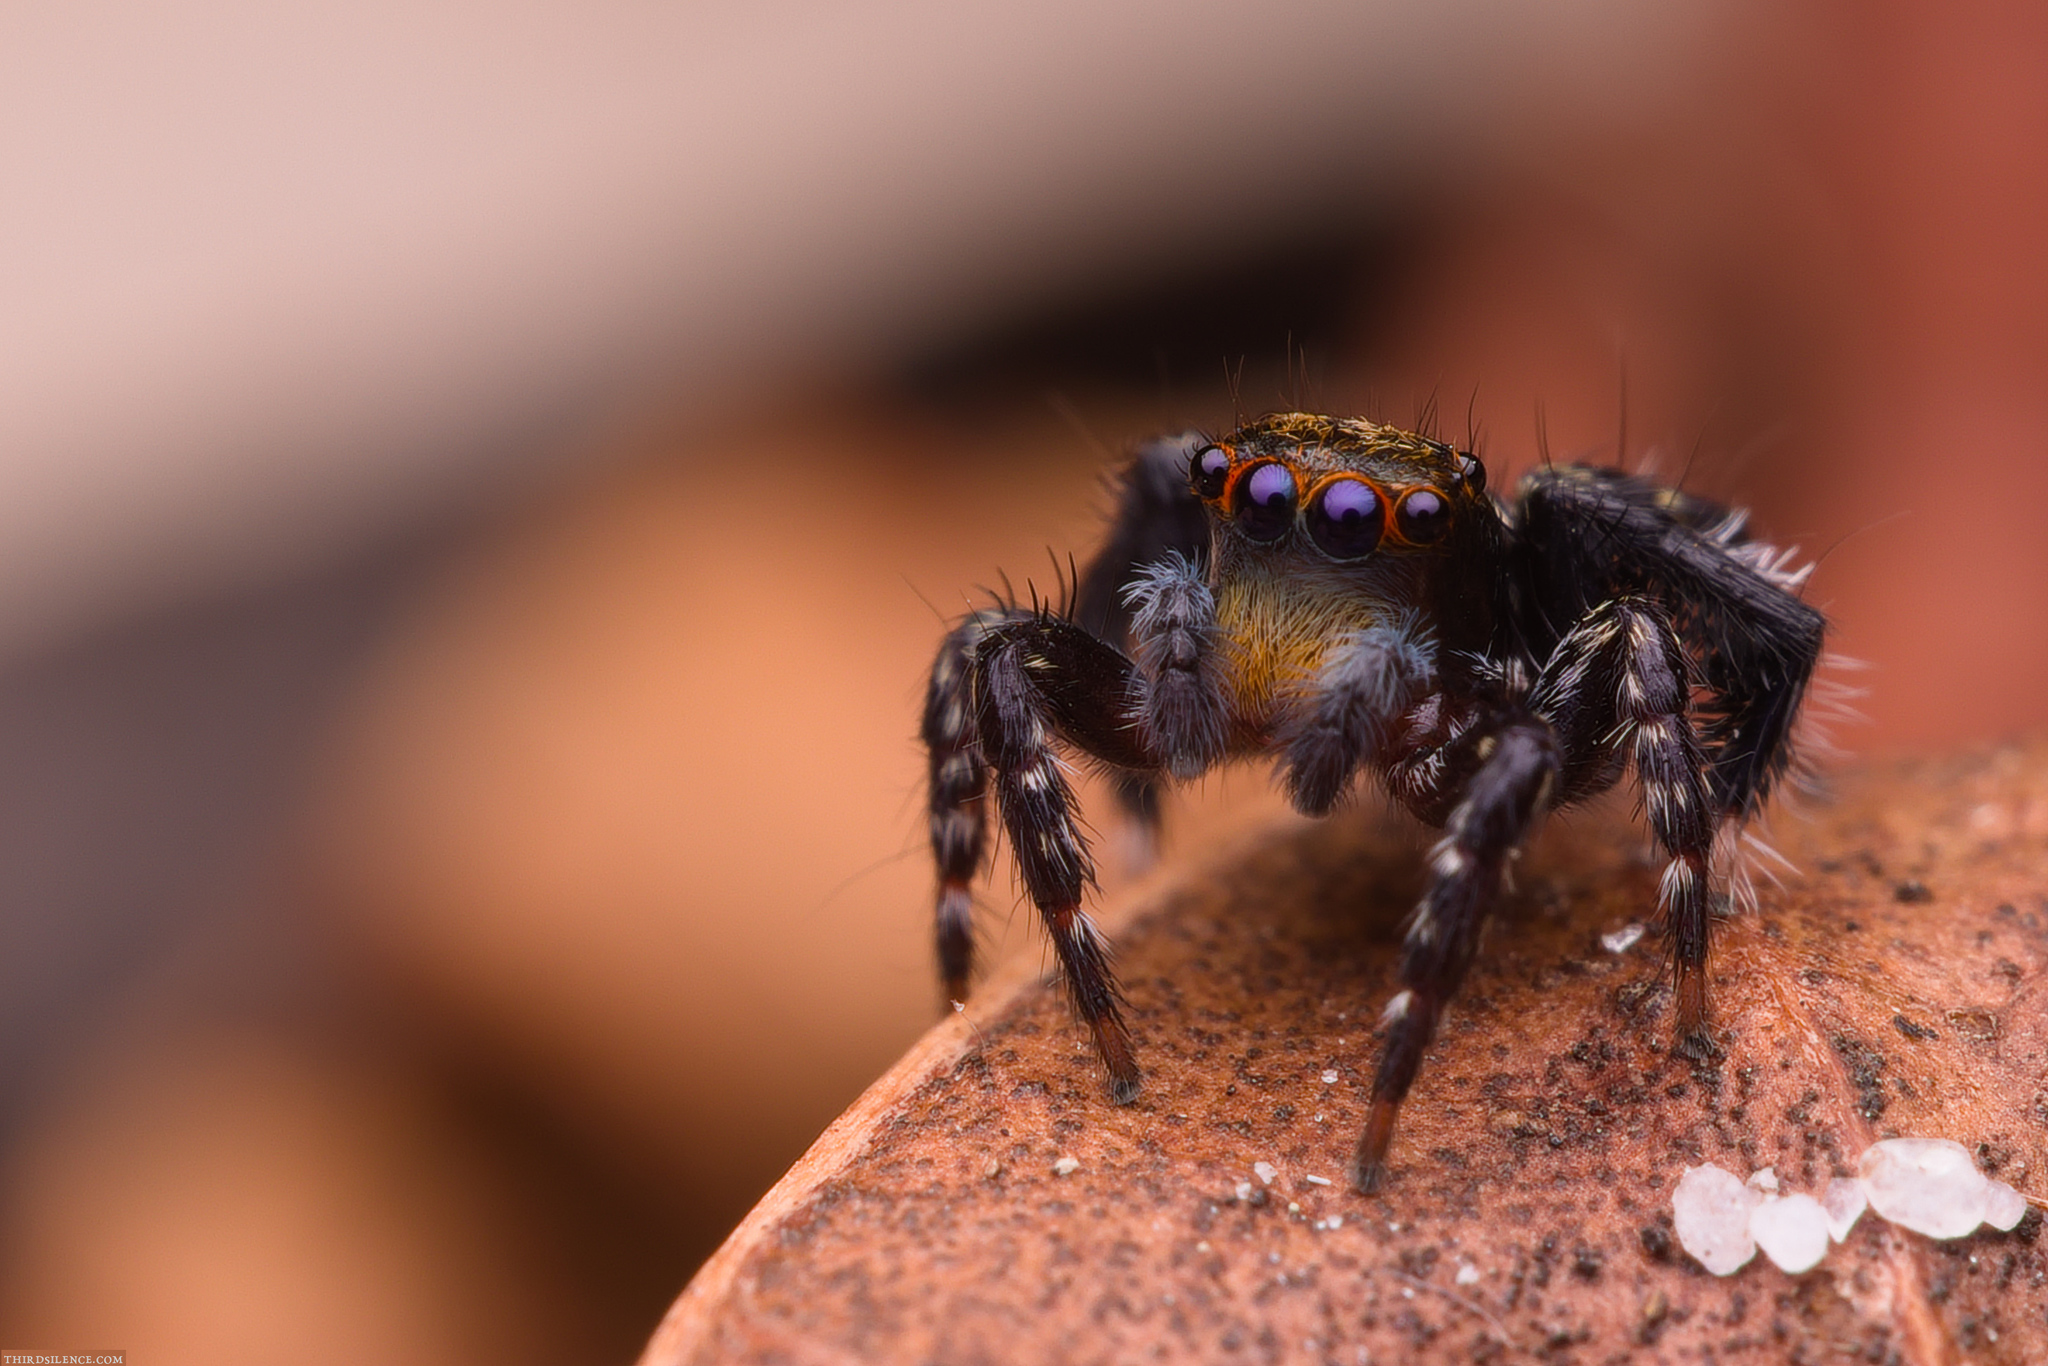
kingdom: Animalia
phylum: Arthropoda
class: Arachnida
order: Araneae
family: Salticidae
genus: Saitis
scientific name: Saitis virgatus
